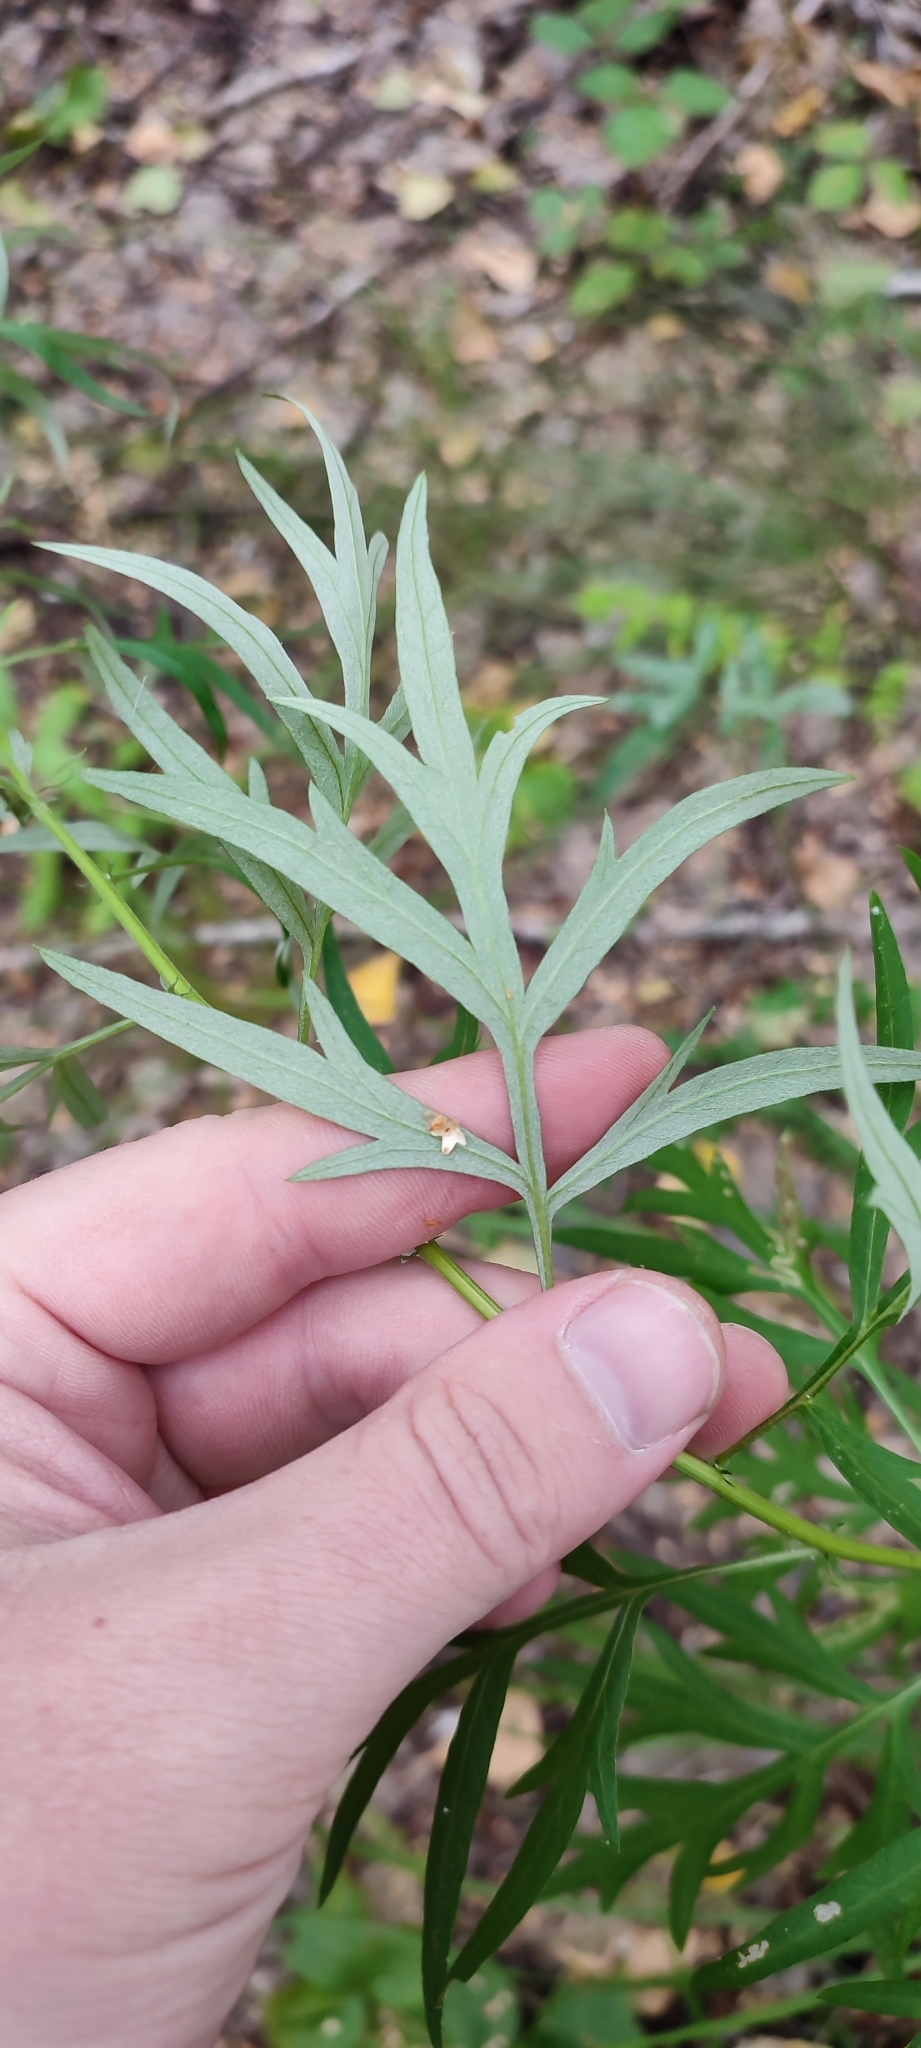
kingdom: Plantae
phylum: Tracheophyta
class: Magnoliopsida
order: Asterales
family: Asteraceae
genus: Artemisia
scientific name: Artemisia vulgaris
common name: Mugwort
